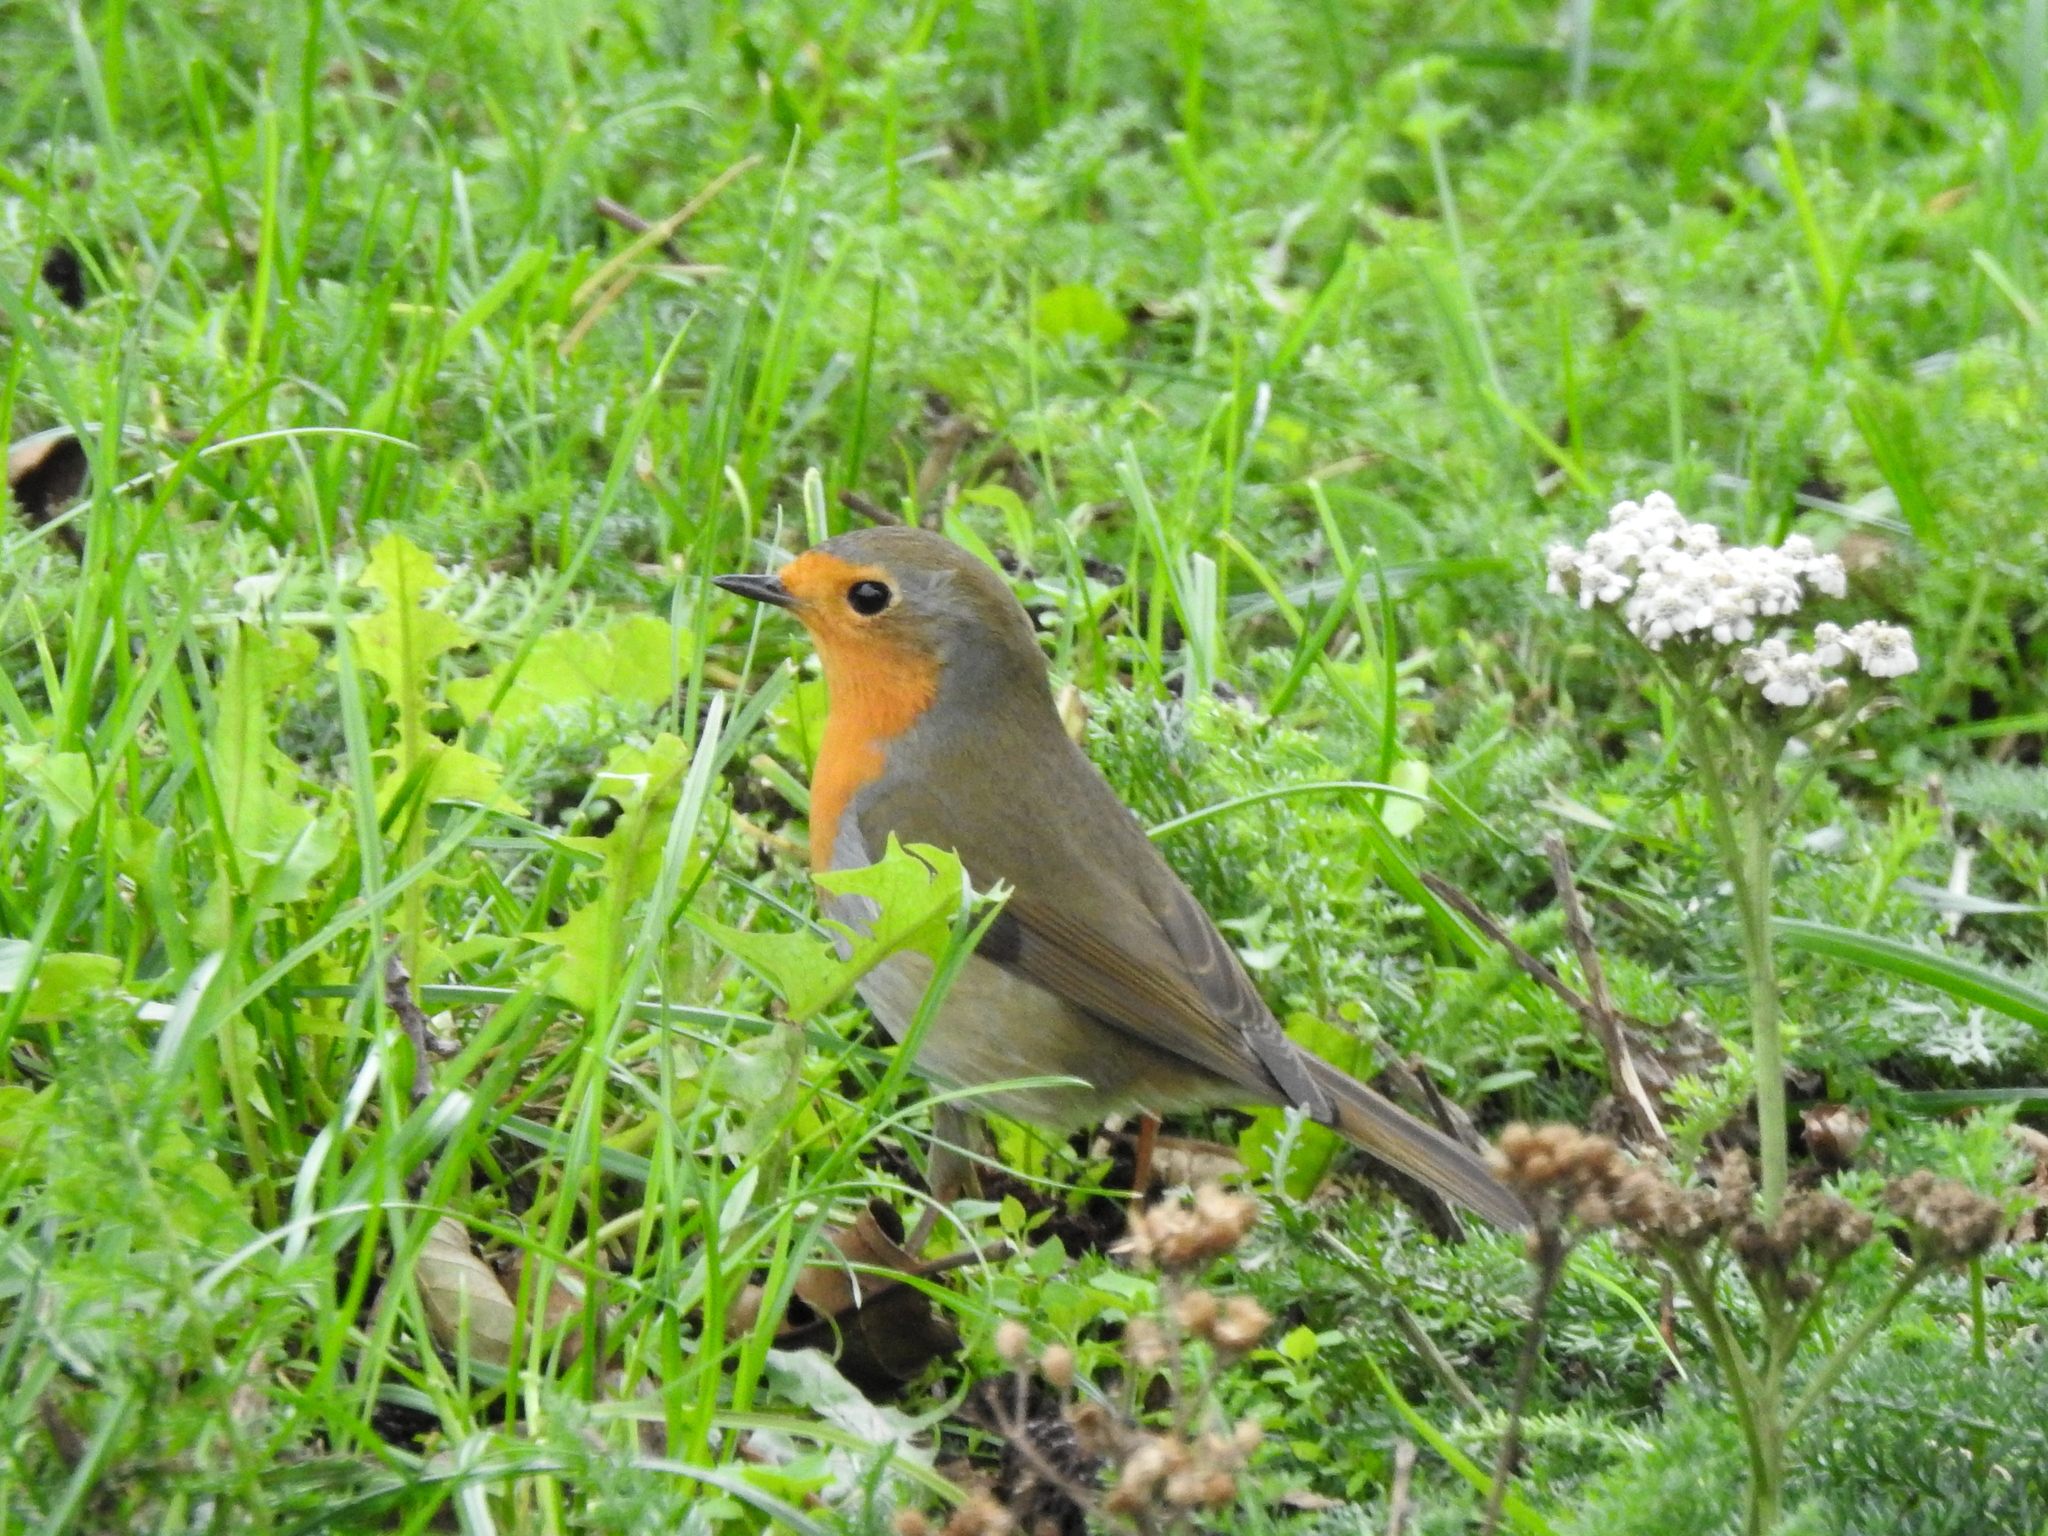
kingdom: Animalia
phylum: Chordata
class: Aves
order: Passeriformes
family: Muscicapidae
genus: Erithacus
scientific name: Erithacus rubecula
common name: European robin
